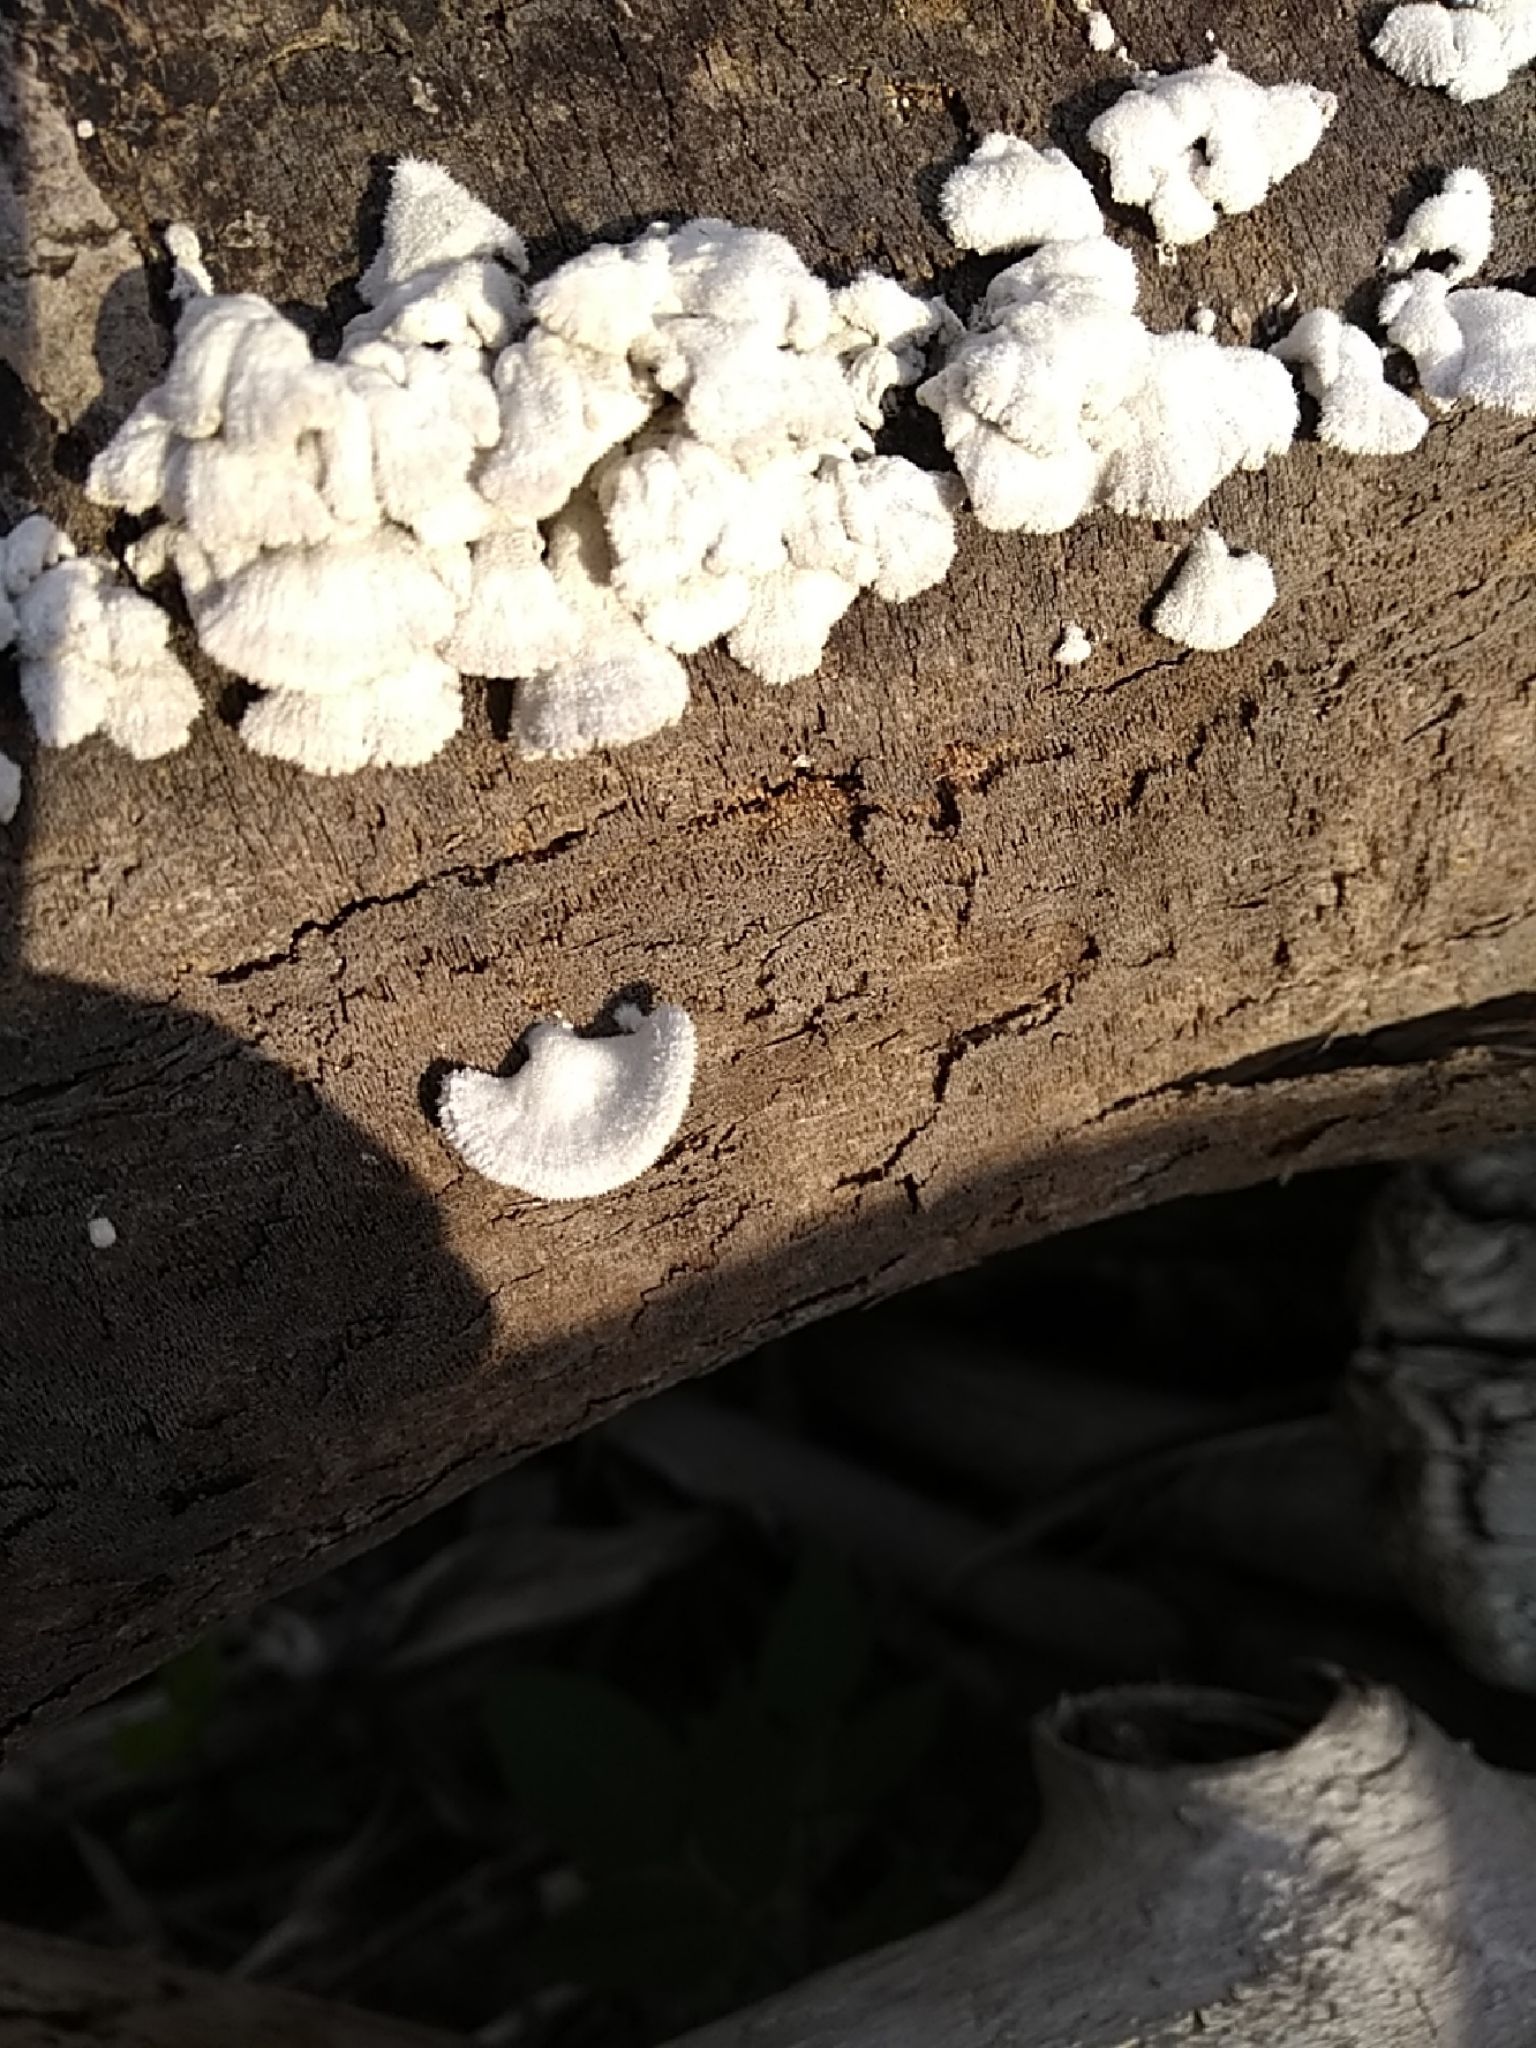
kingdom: Fungi
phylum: Basidiomycota
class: Agaricomycetes
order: Agaricales
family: Schizophyllaceae
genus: Schizophyllum
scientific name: Schizophyllum commune
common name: Common porecrust
